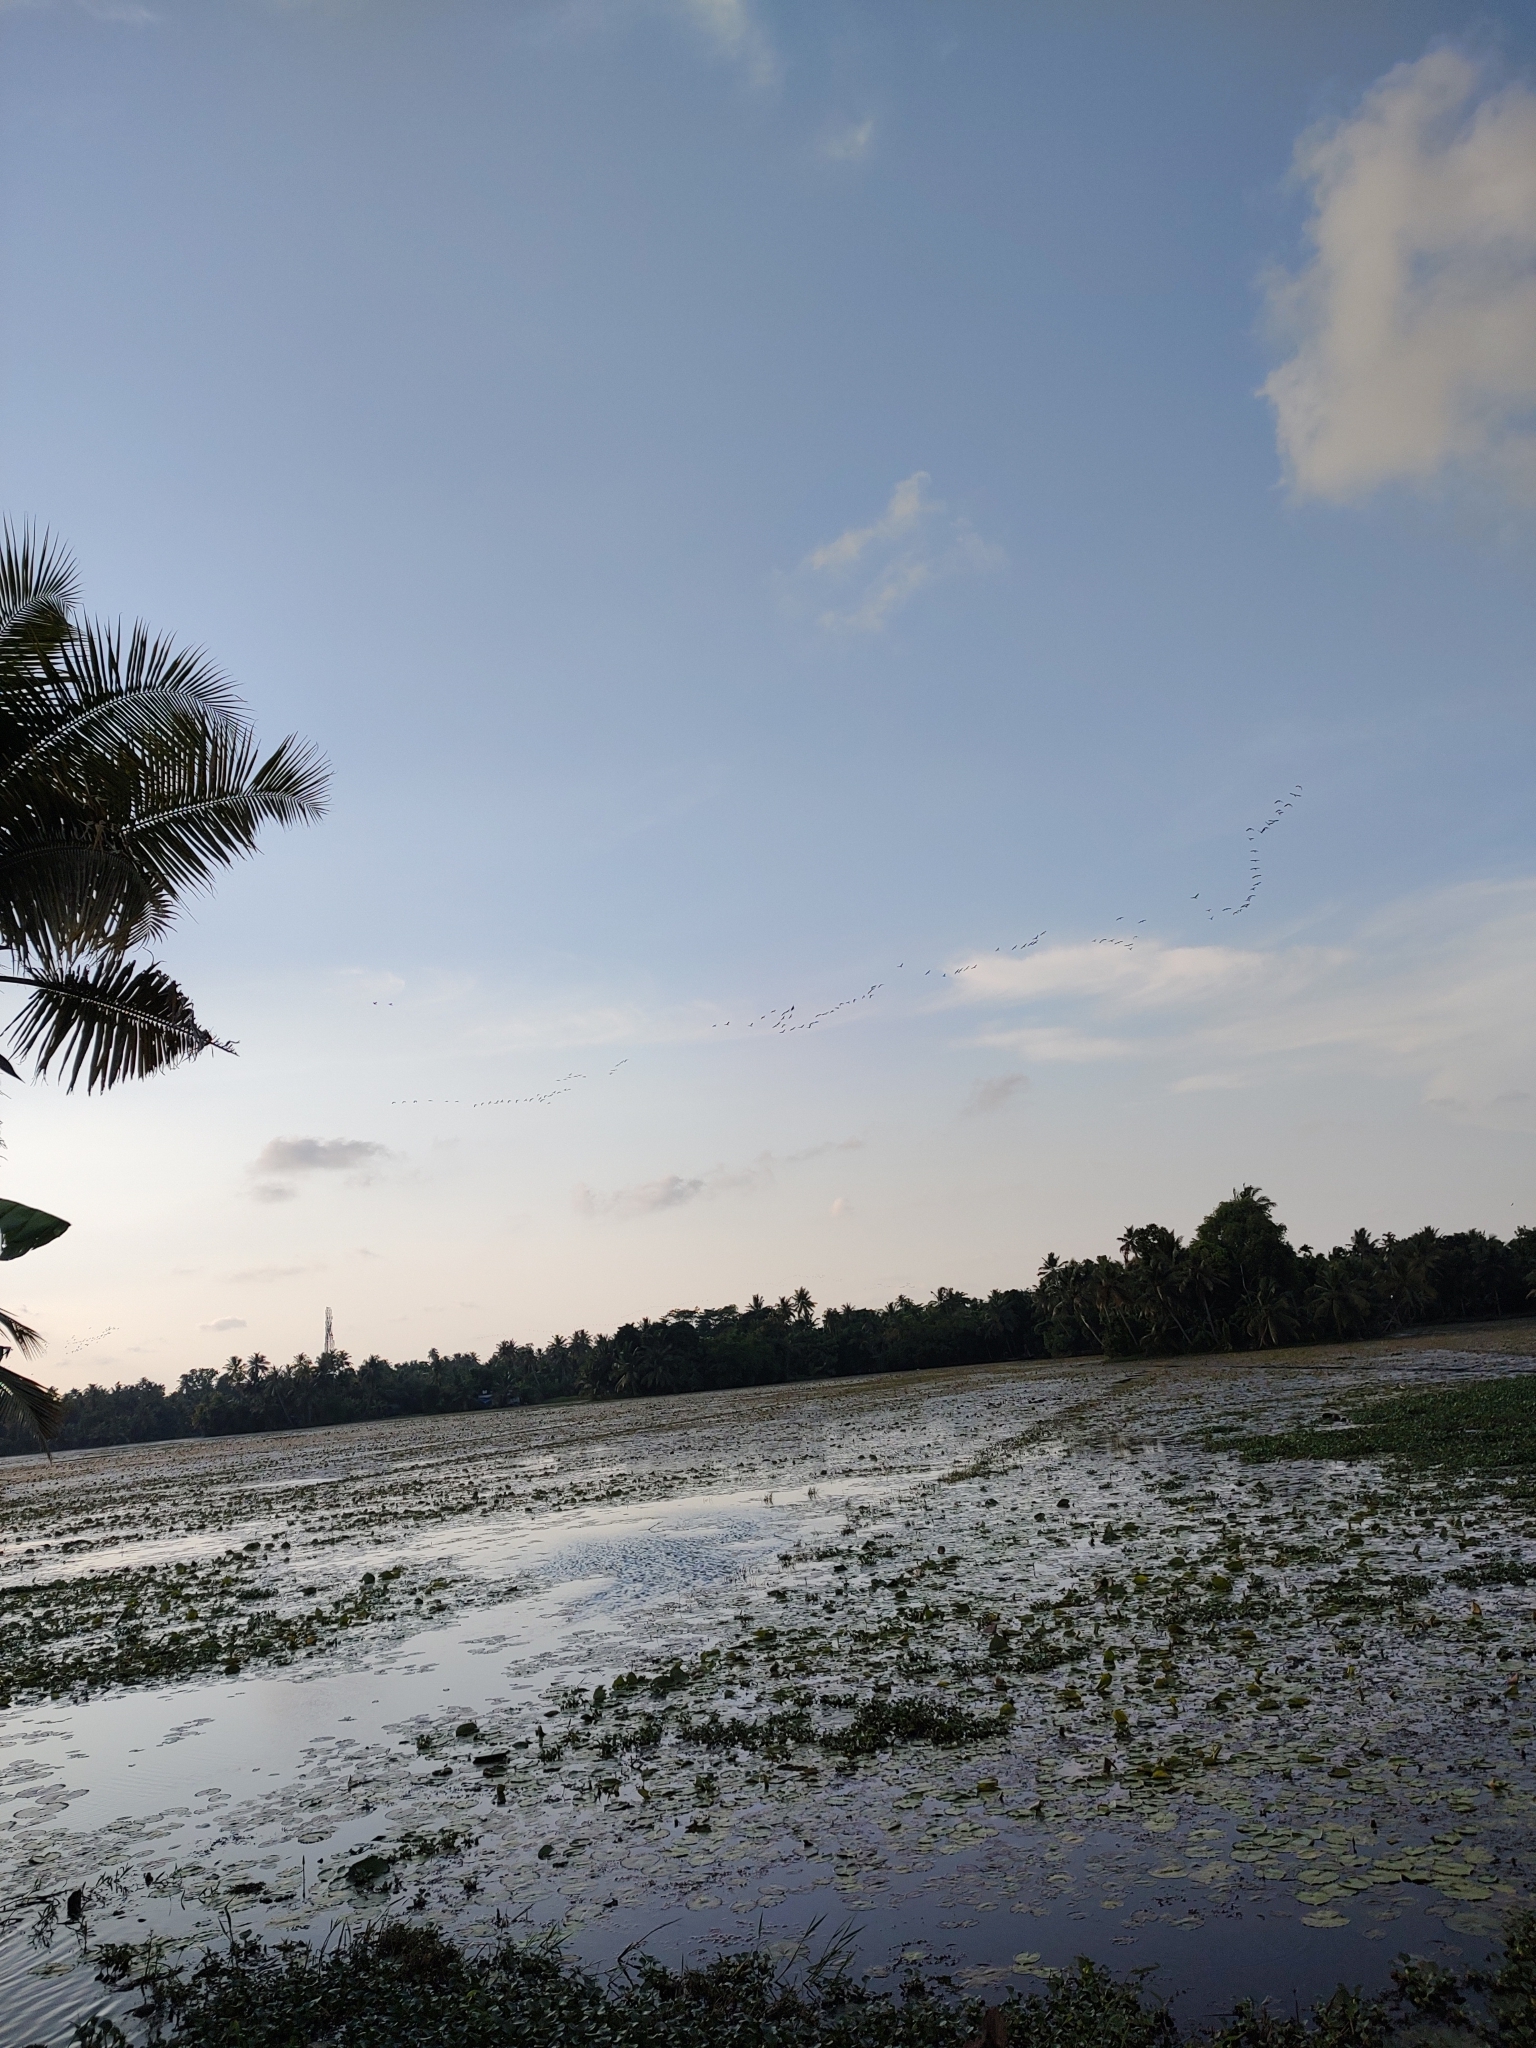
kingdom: Animalia
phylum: Chordata
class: Aves
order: Pelecaniformes
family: Threskiornithidae
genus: Plegadis
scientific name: Plegadis falcinellus
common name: Glossy ibis
